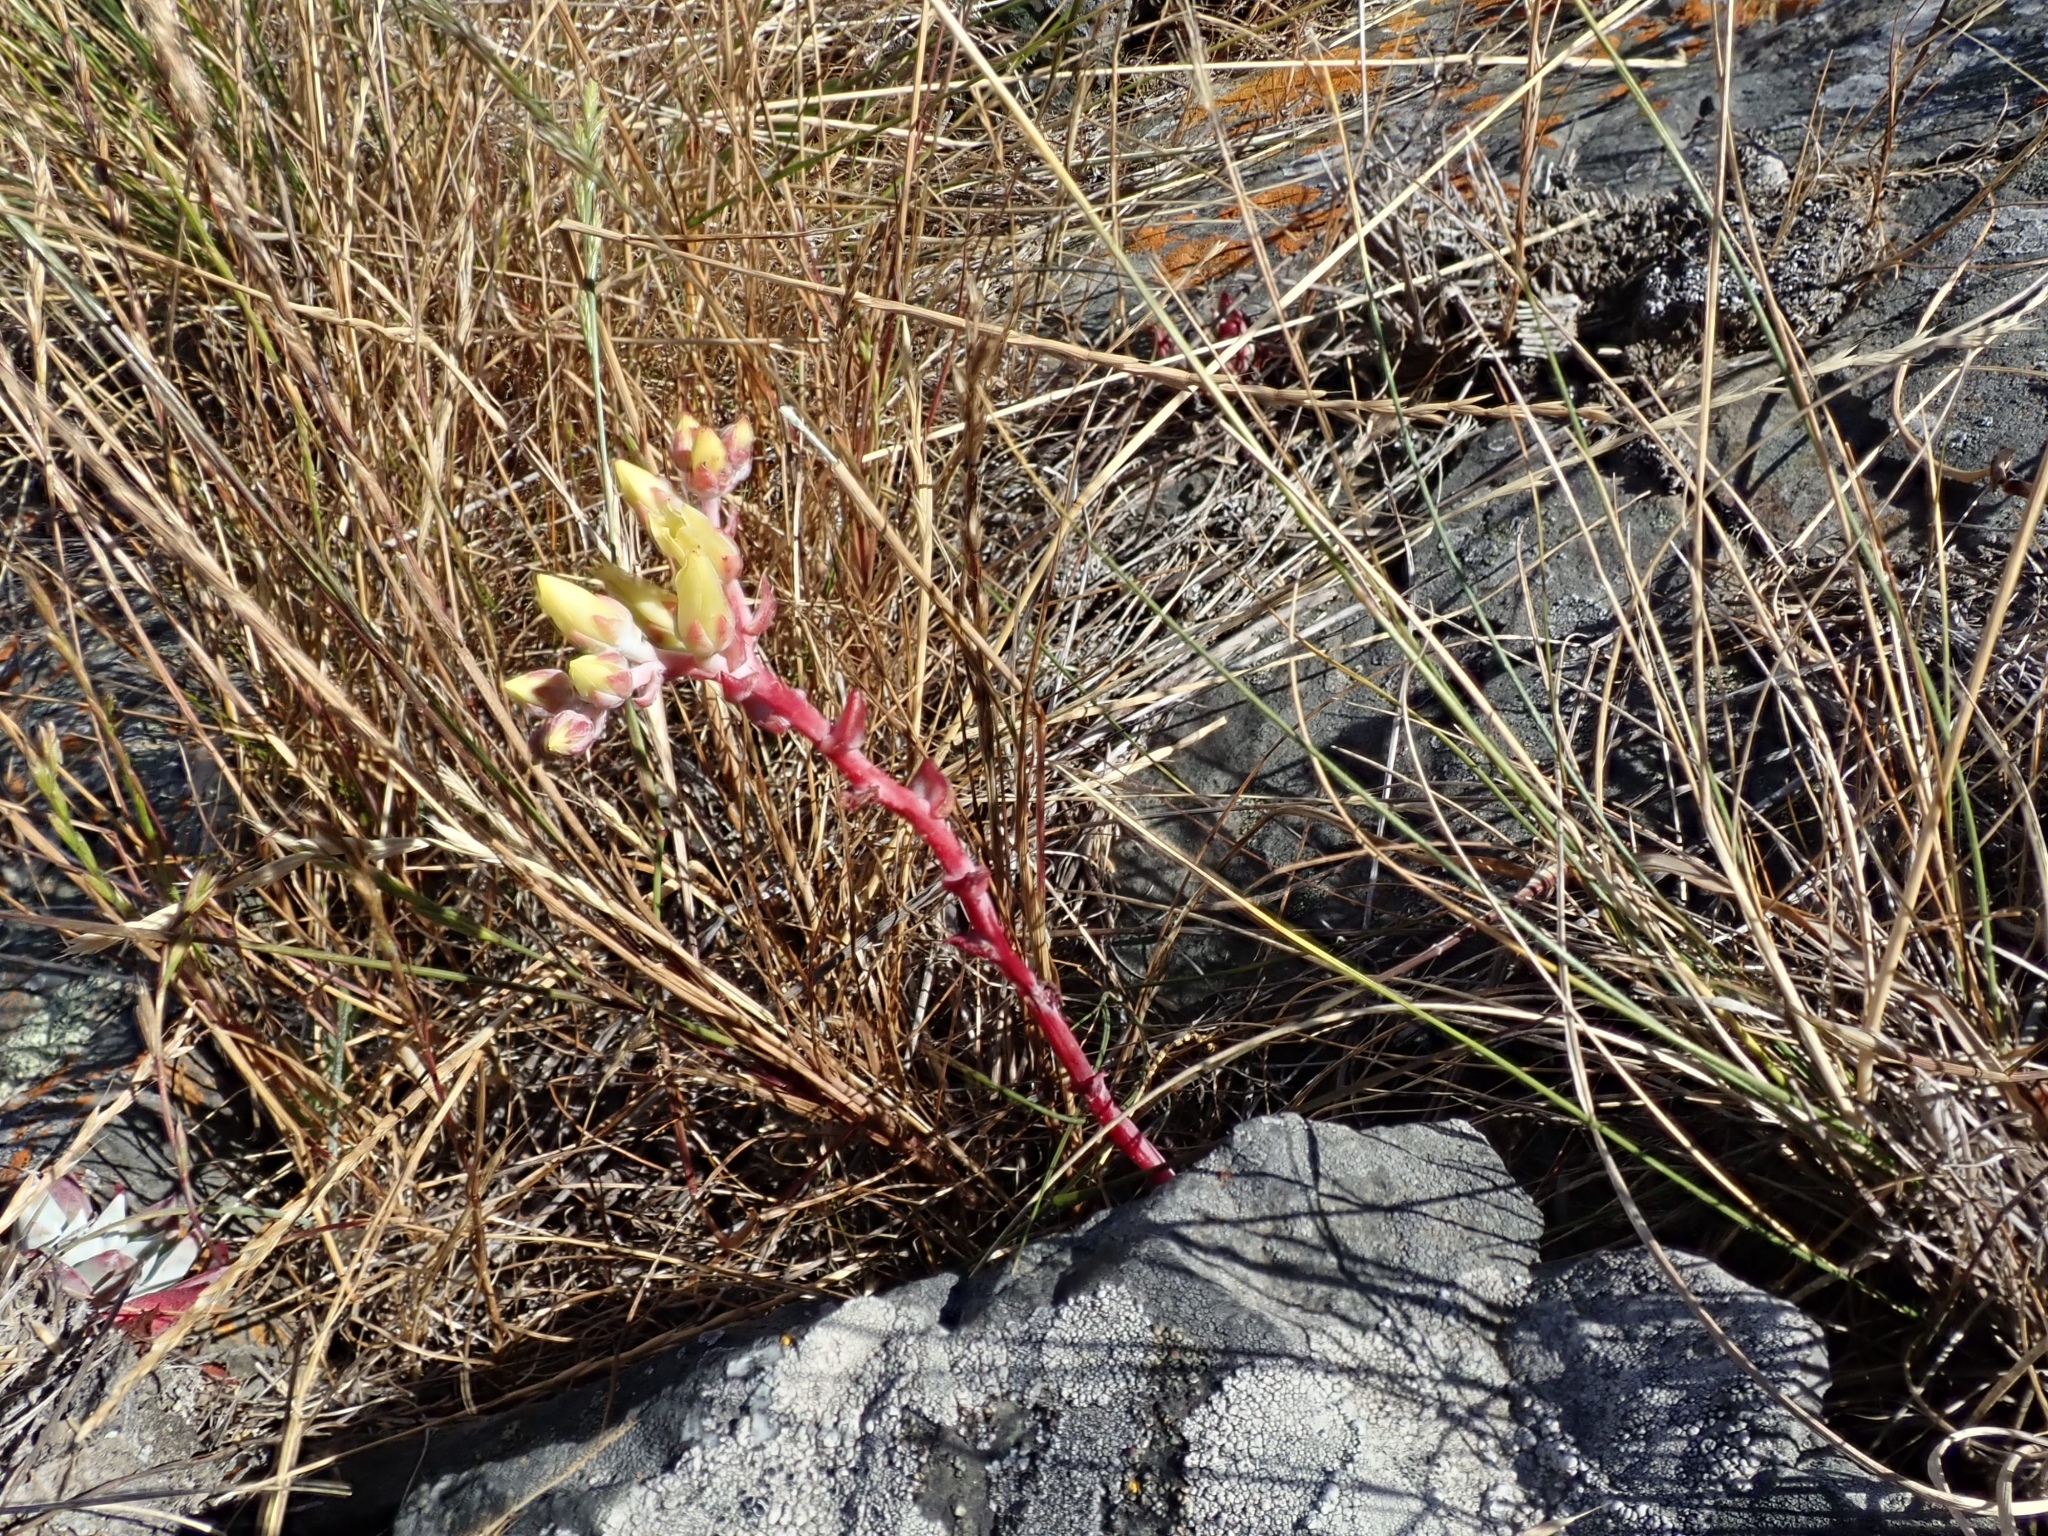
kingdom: Plantae
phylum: Tracheophyta
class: Magnoliopsida
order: Saxifragales
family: Crassulaceae
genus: Dudleya
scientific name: Dudleya farinosa
